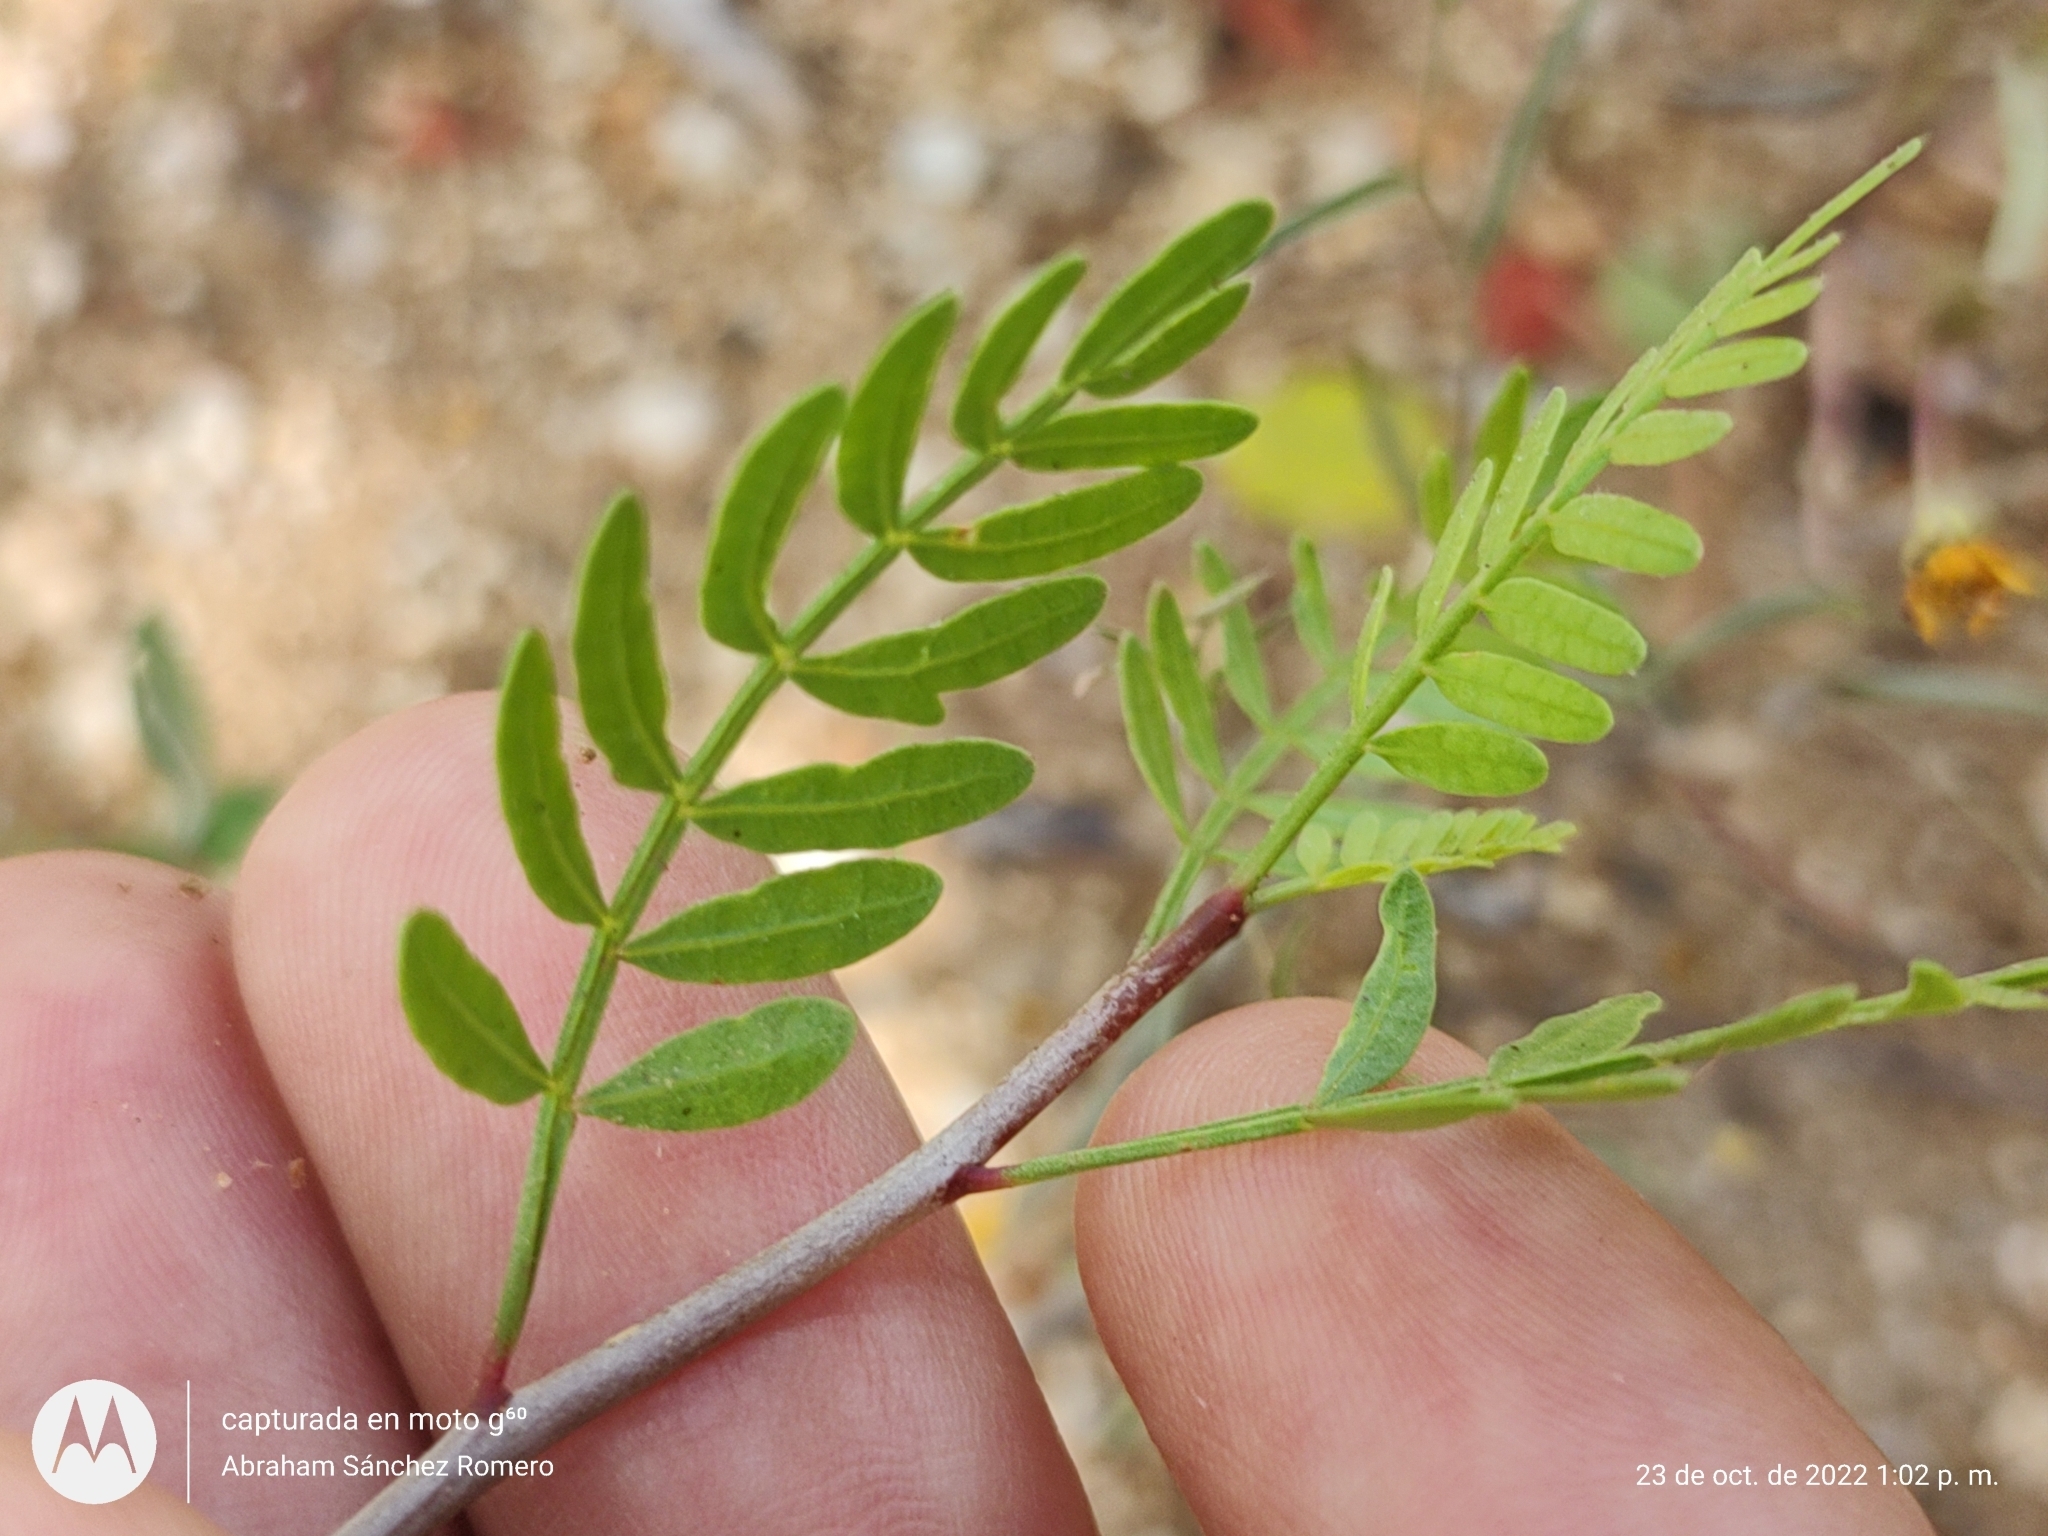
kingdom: Plantae
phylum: Tracheophyta
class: Magnoliopsida
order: Sapindales
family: Burseraceae
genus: Bursera
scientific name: Bursera microphylla
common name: Elephant tree
